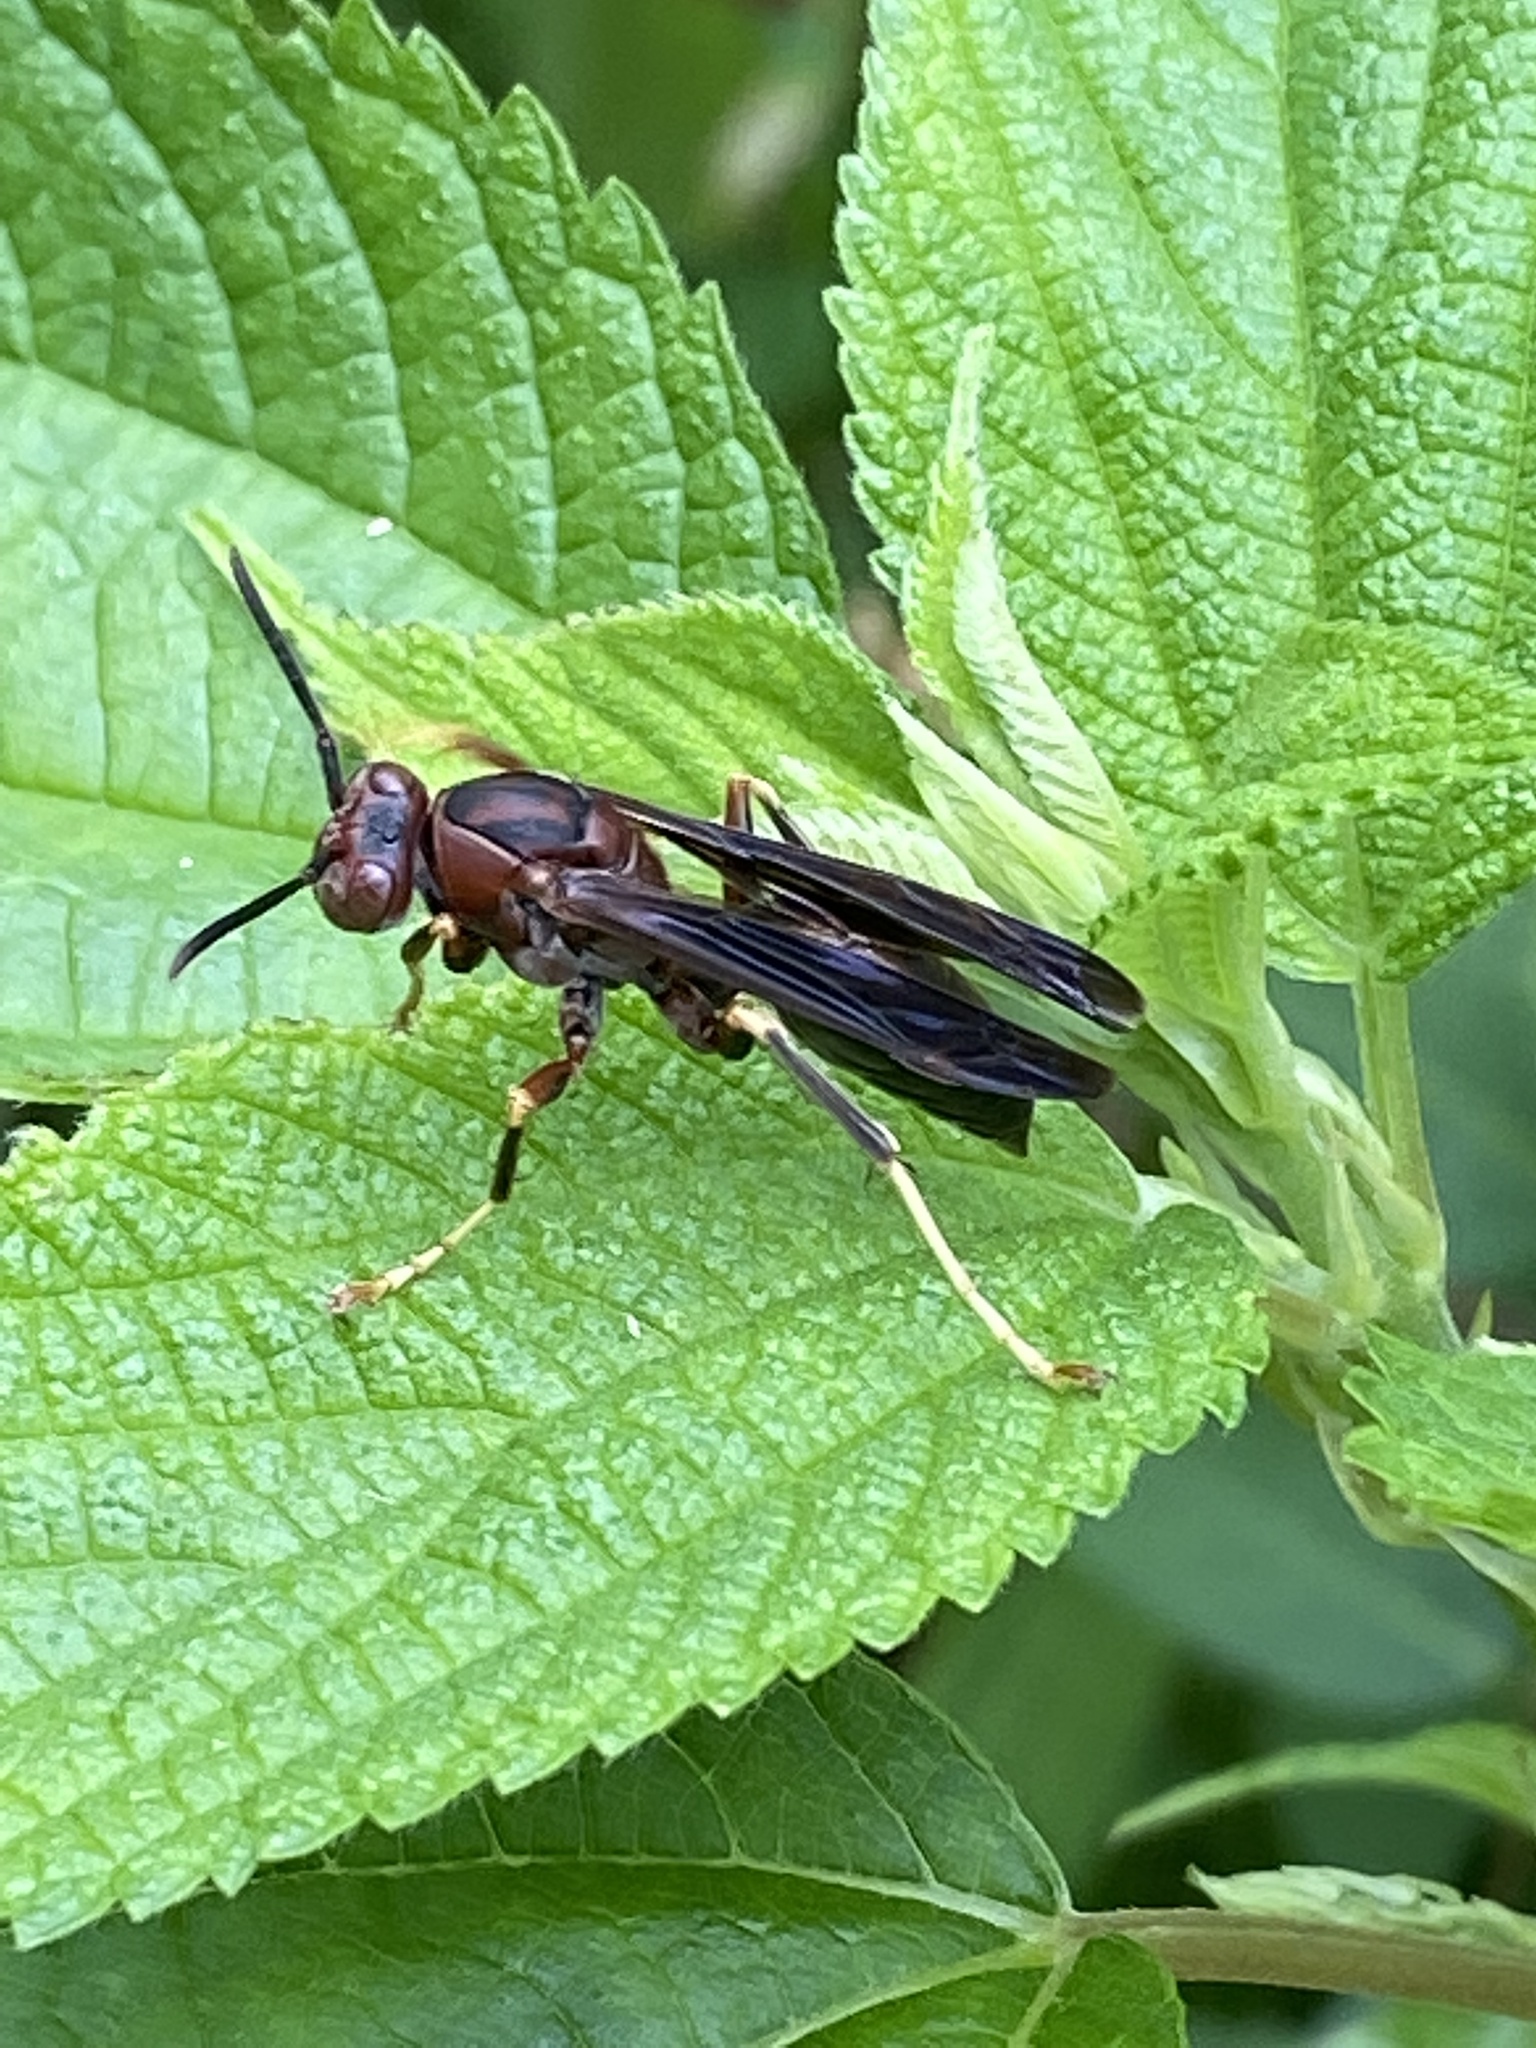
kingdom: Animalia
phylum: Arthropoda
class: Insecta
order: Hymenoptera
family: Eumenidae
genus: Polistes
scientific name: Polistes metricus
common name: Metric paper wasp
